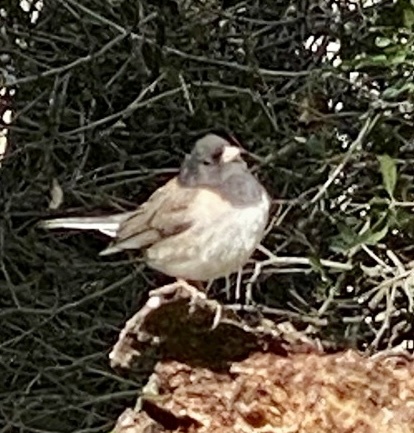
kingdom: Animalia
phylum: Chordata
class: Aves
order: Passeriformes
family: Passerellidae
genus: Junco
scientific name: Junco hyemalis
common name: Dark-eyed junco
